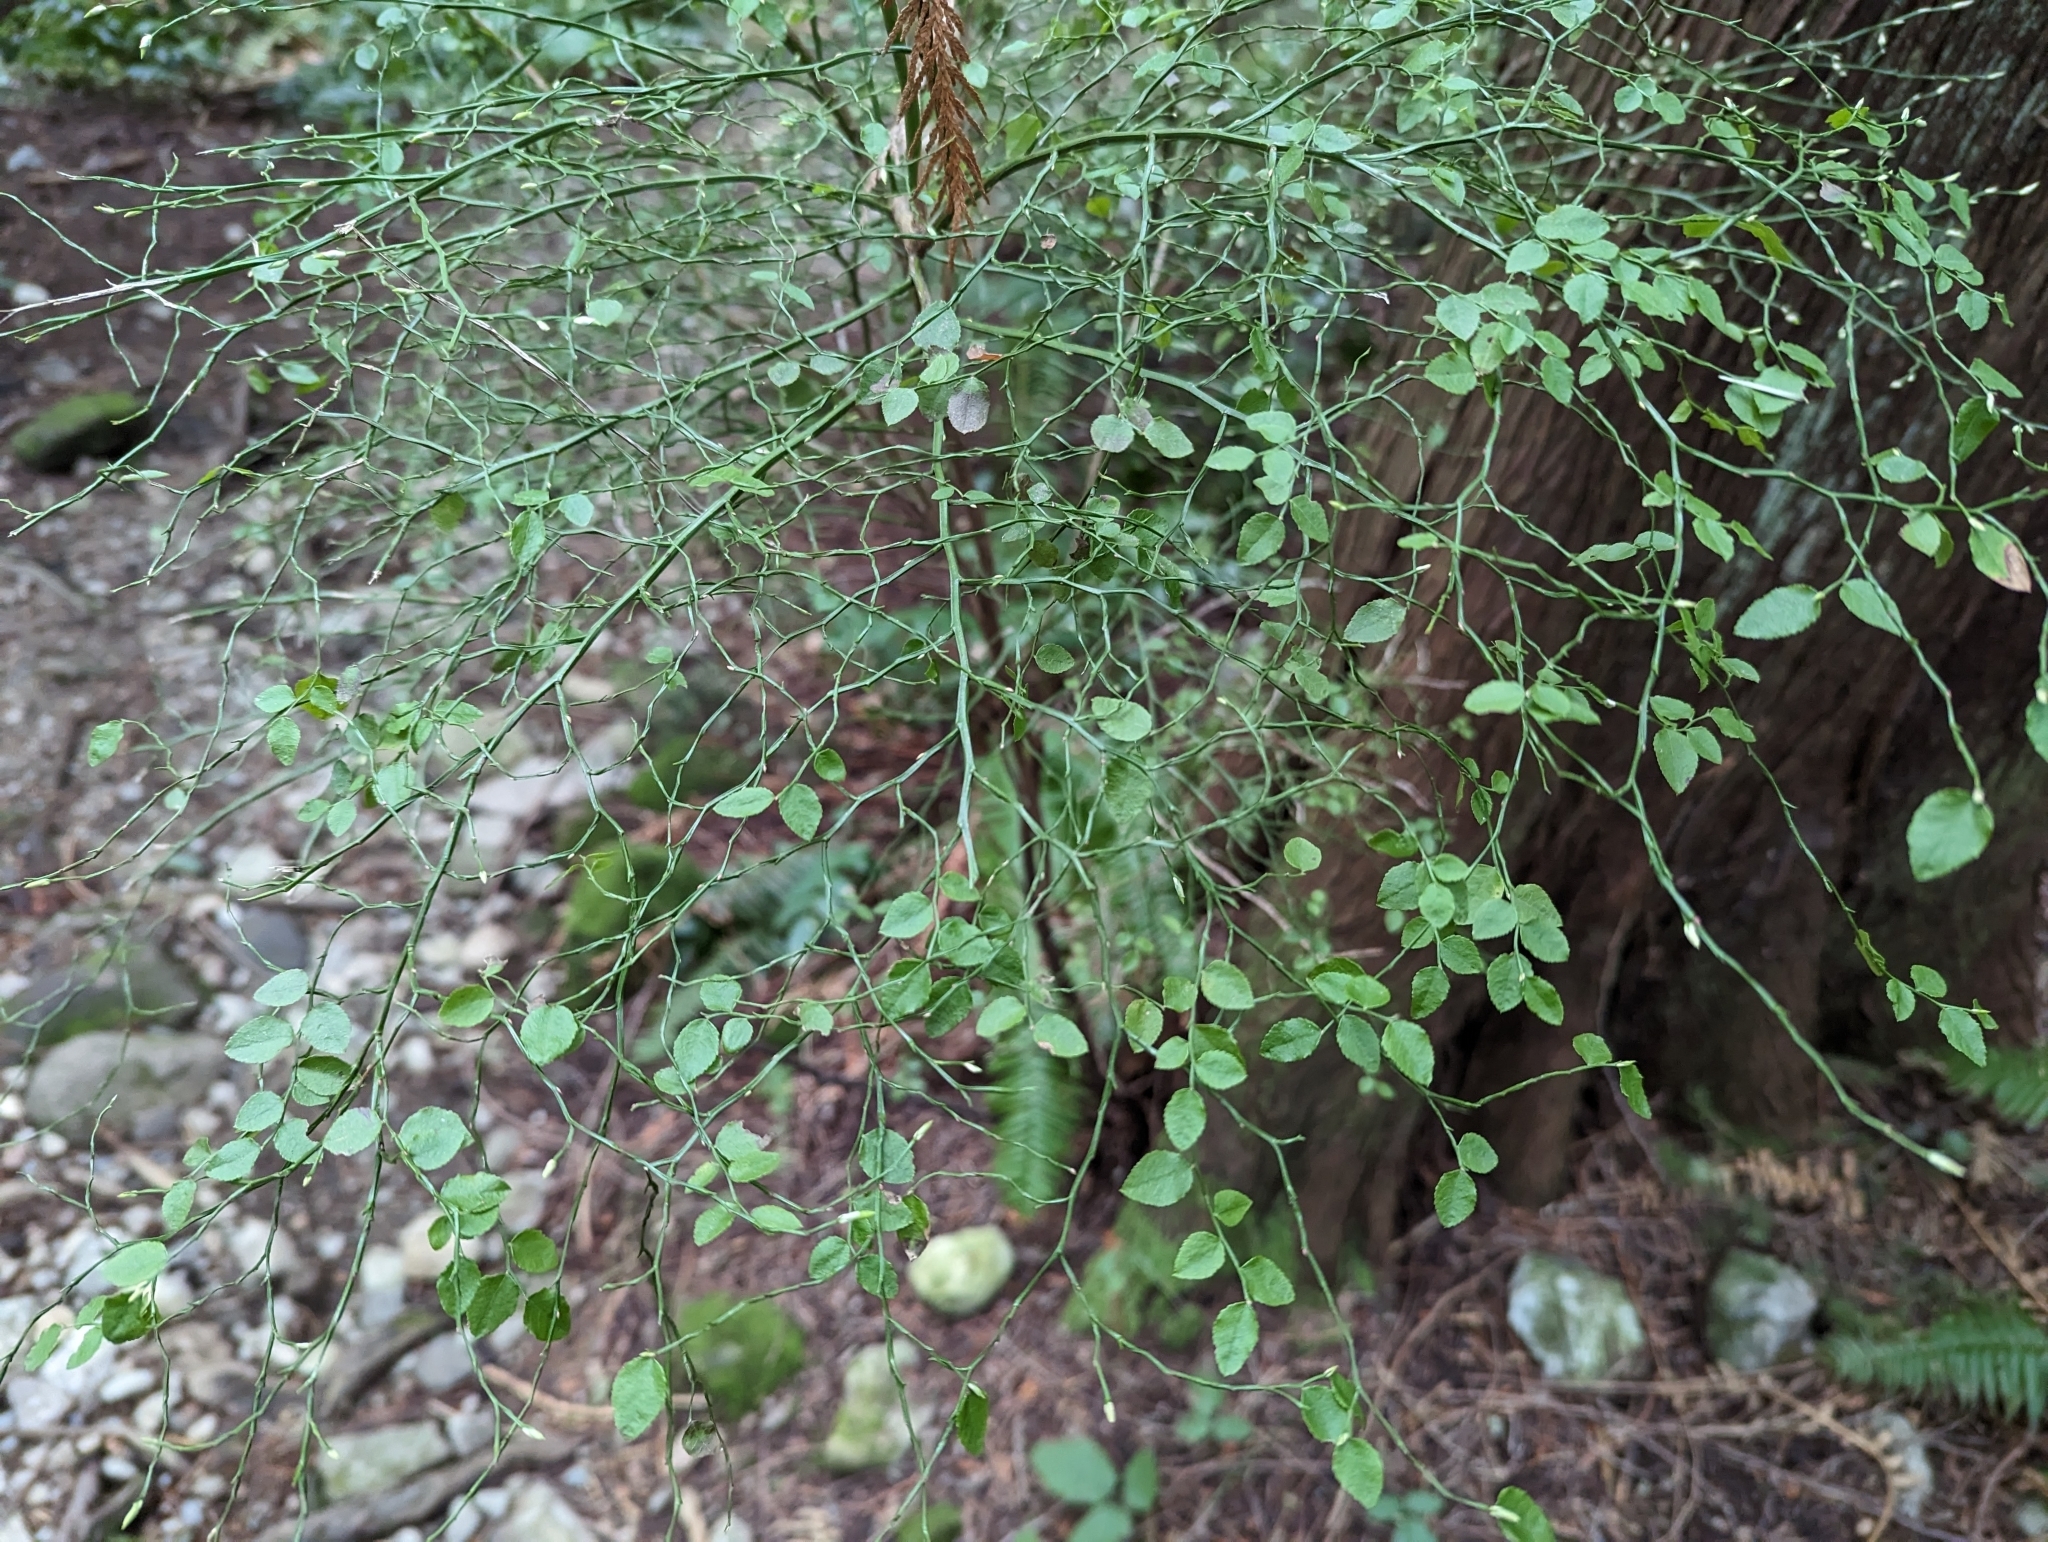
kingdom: Plantae
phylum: Tracheophyta
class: Magnoliopsida
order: Ericales
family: Ericaceae
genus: Vaccinium
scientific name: Vaccinium parvifolium
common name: Red-huckleberry
